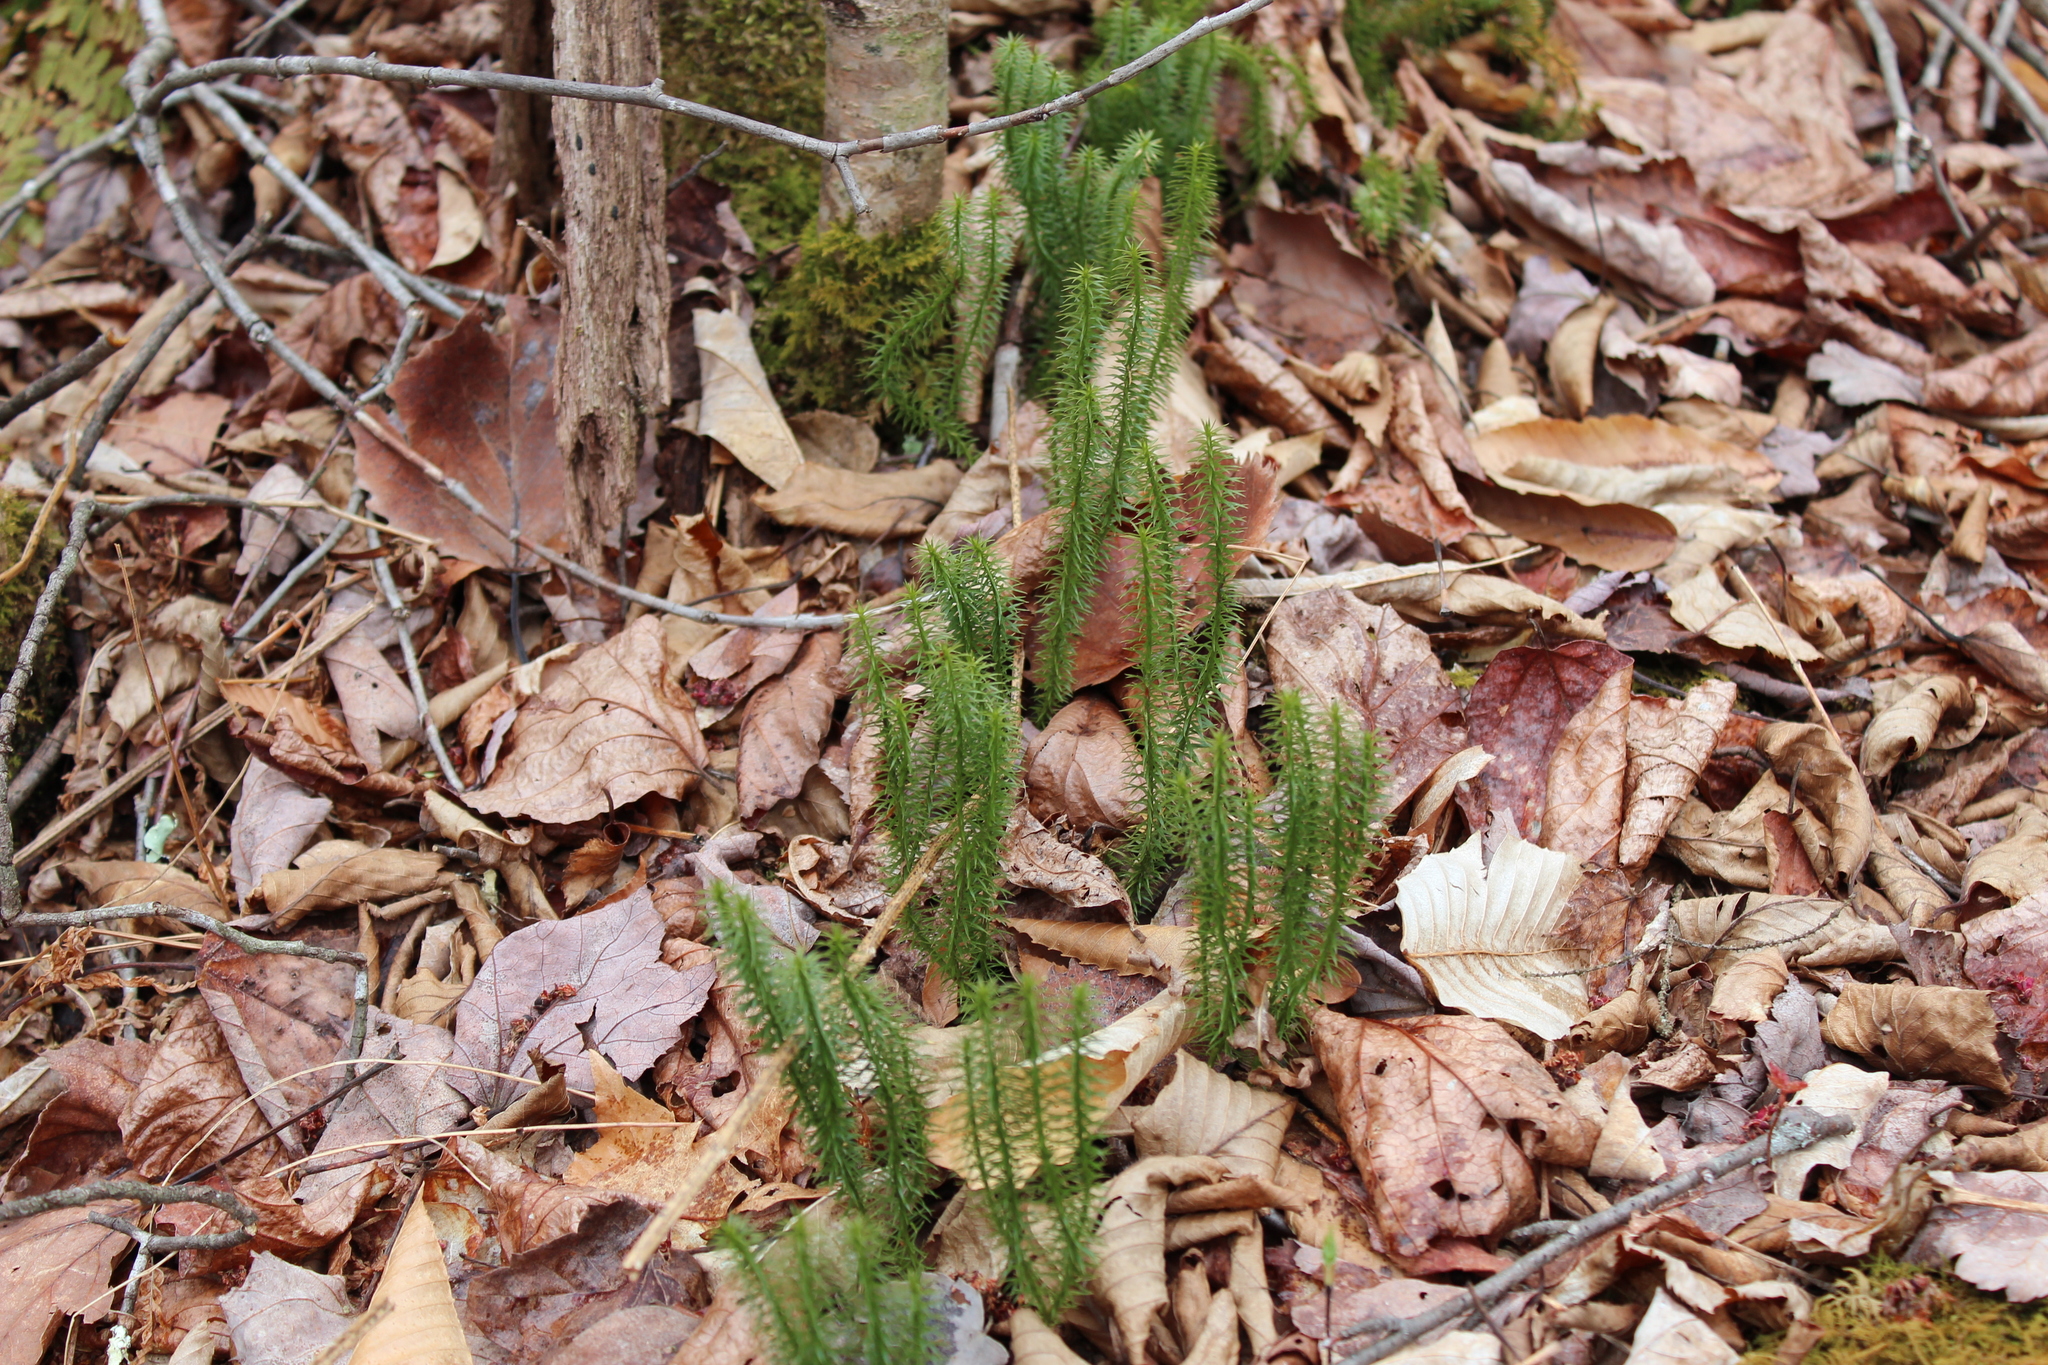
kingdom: Plantae
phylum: Tracheophyta
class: Lycopodiopsida
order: Lycopodiales
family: Lycopodiaceae
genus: Spinulum
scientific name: Spinulum annotinum
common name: Interrupted club-moss
